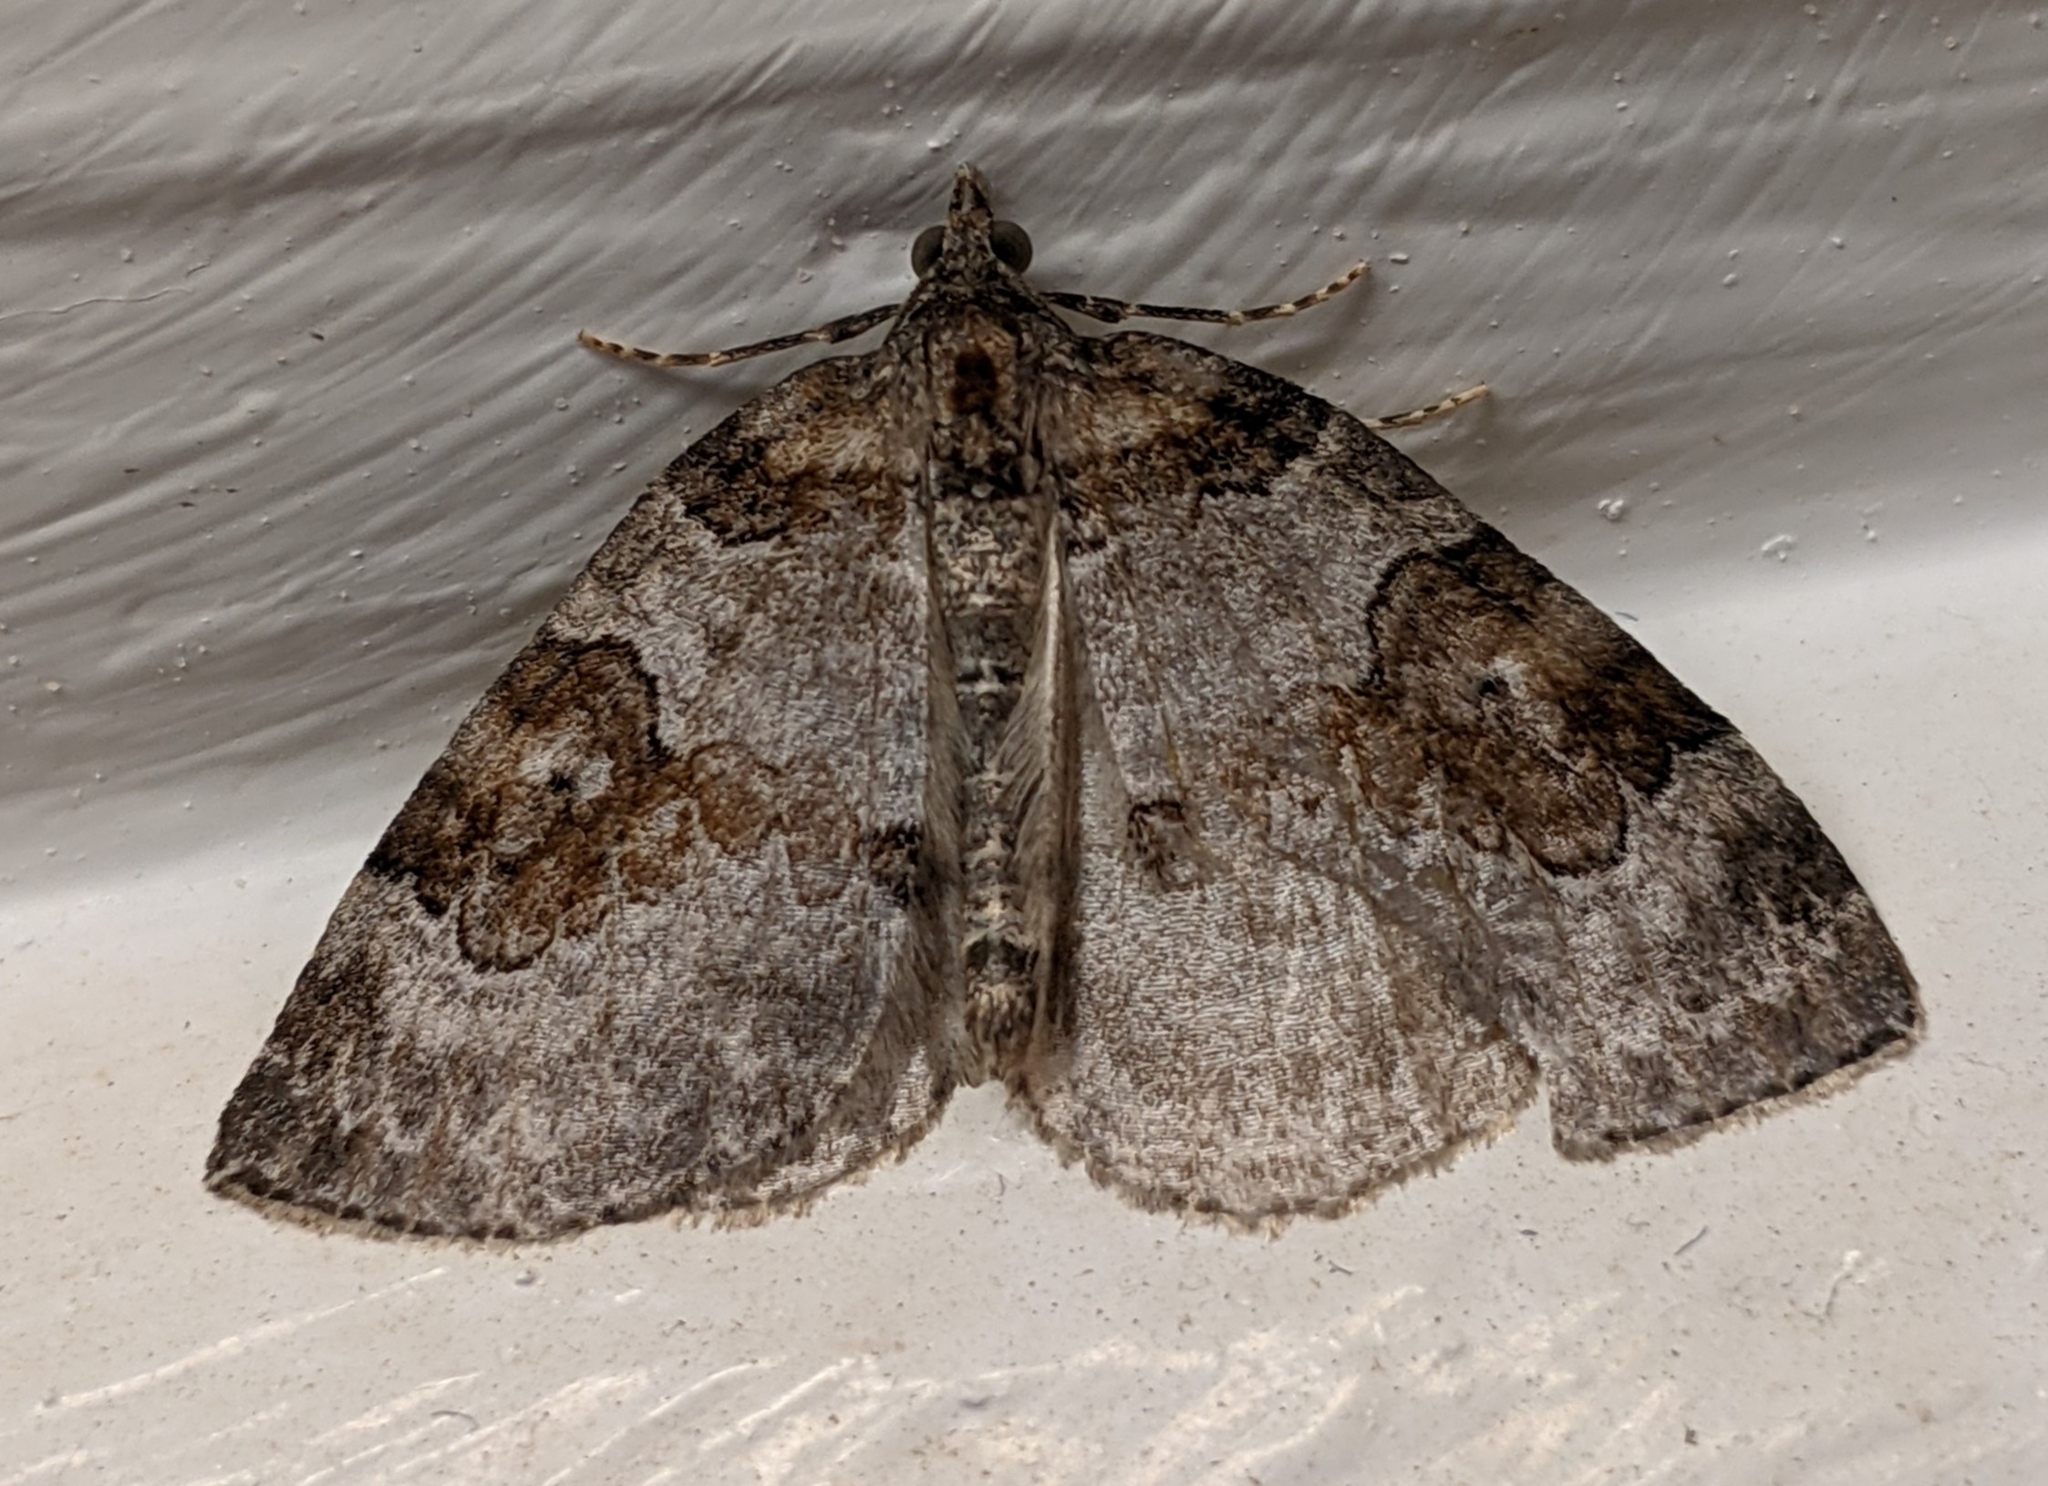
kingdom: Animalia
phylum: Arthropoda
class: Insecta
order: Lepidoptera
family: Geometridae
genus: Plemyria
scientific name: Plemyria georgii
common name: George's carpet moth
